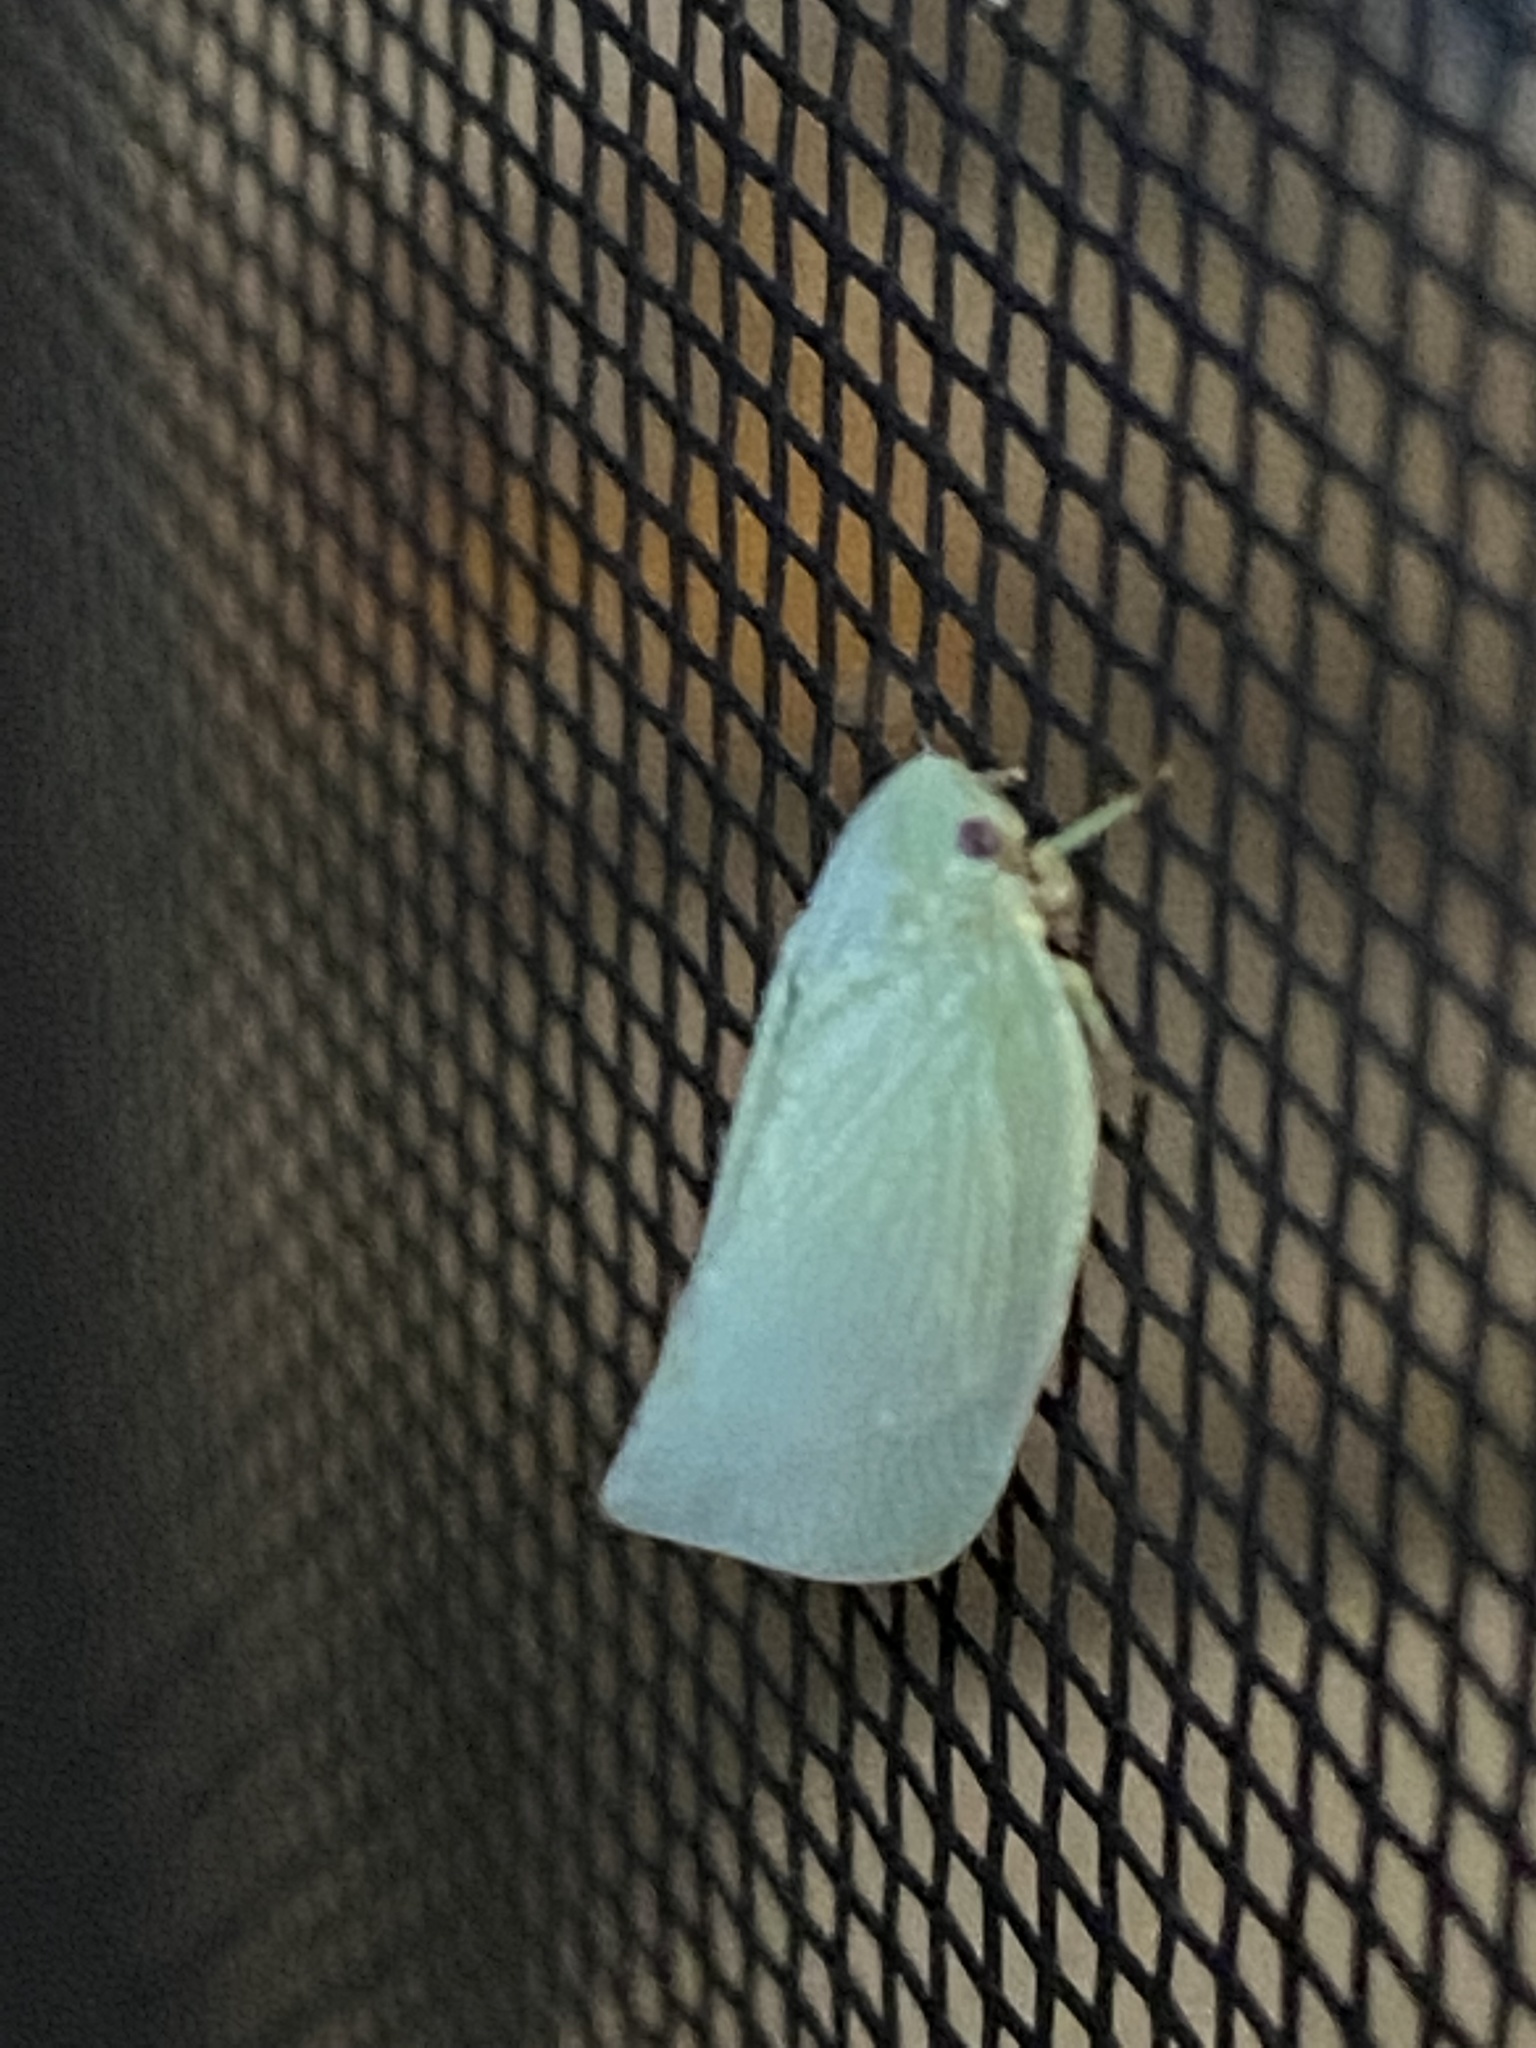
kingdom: Animalia
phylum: Arthropoda
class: Insecta
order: Hemiptera
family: Flatidae
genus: Flatormenis
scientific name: Flatormenis proxima
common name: Northern flatid planthopper
